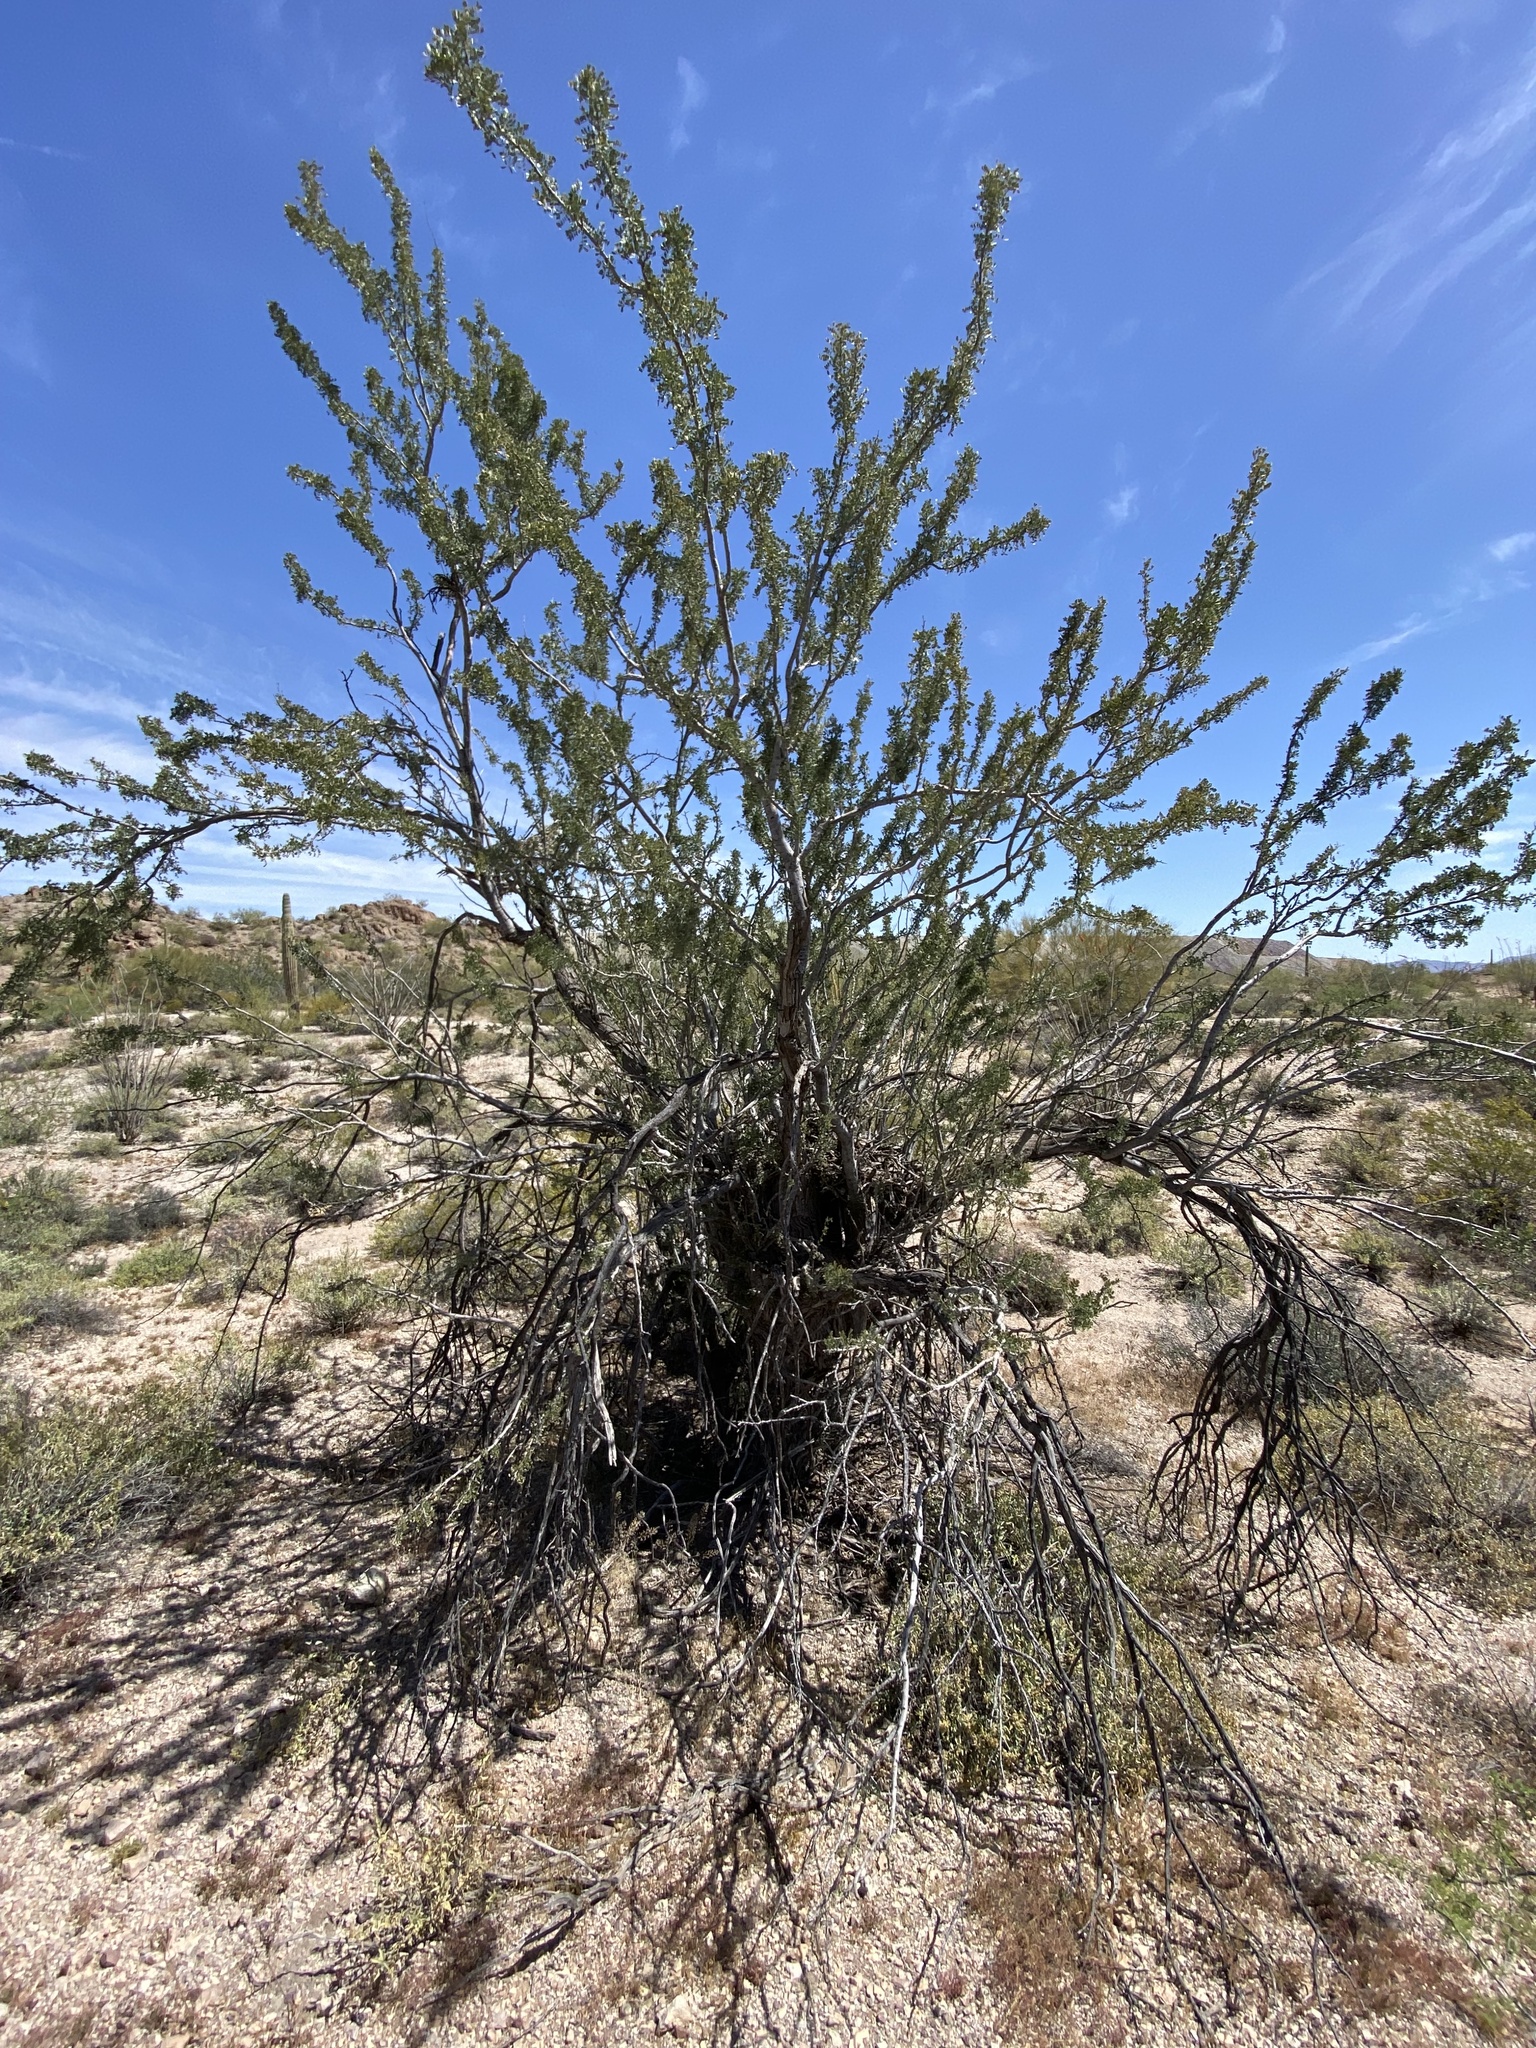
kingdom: Plantae
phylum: Tracheophyta
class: Magnoliopsida
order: Fabales
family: Fabaceae
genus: Olneya
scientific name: Olneya tesota
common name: Desert ironwood
